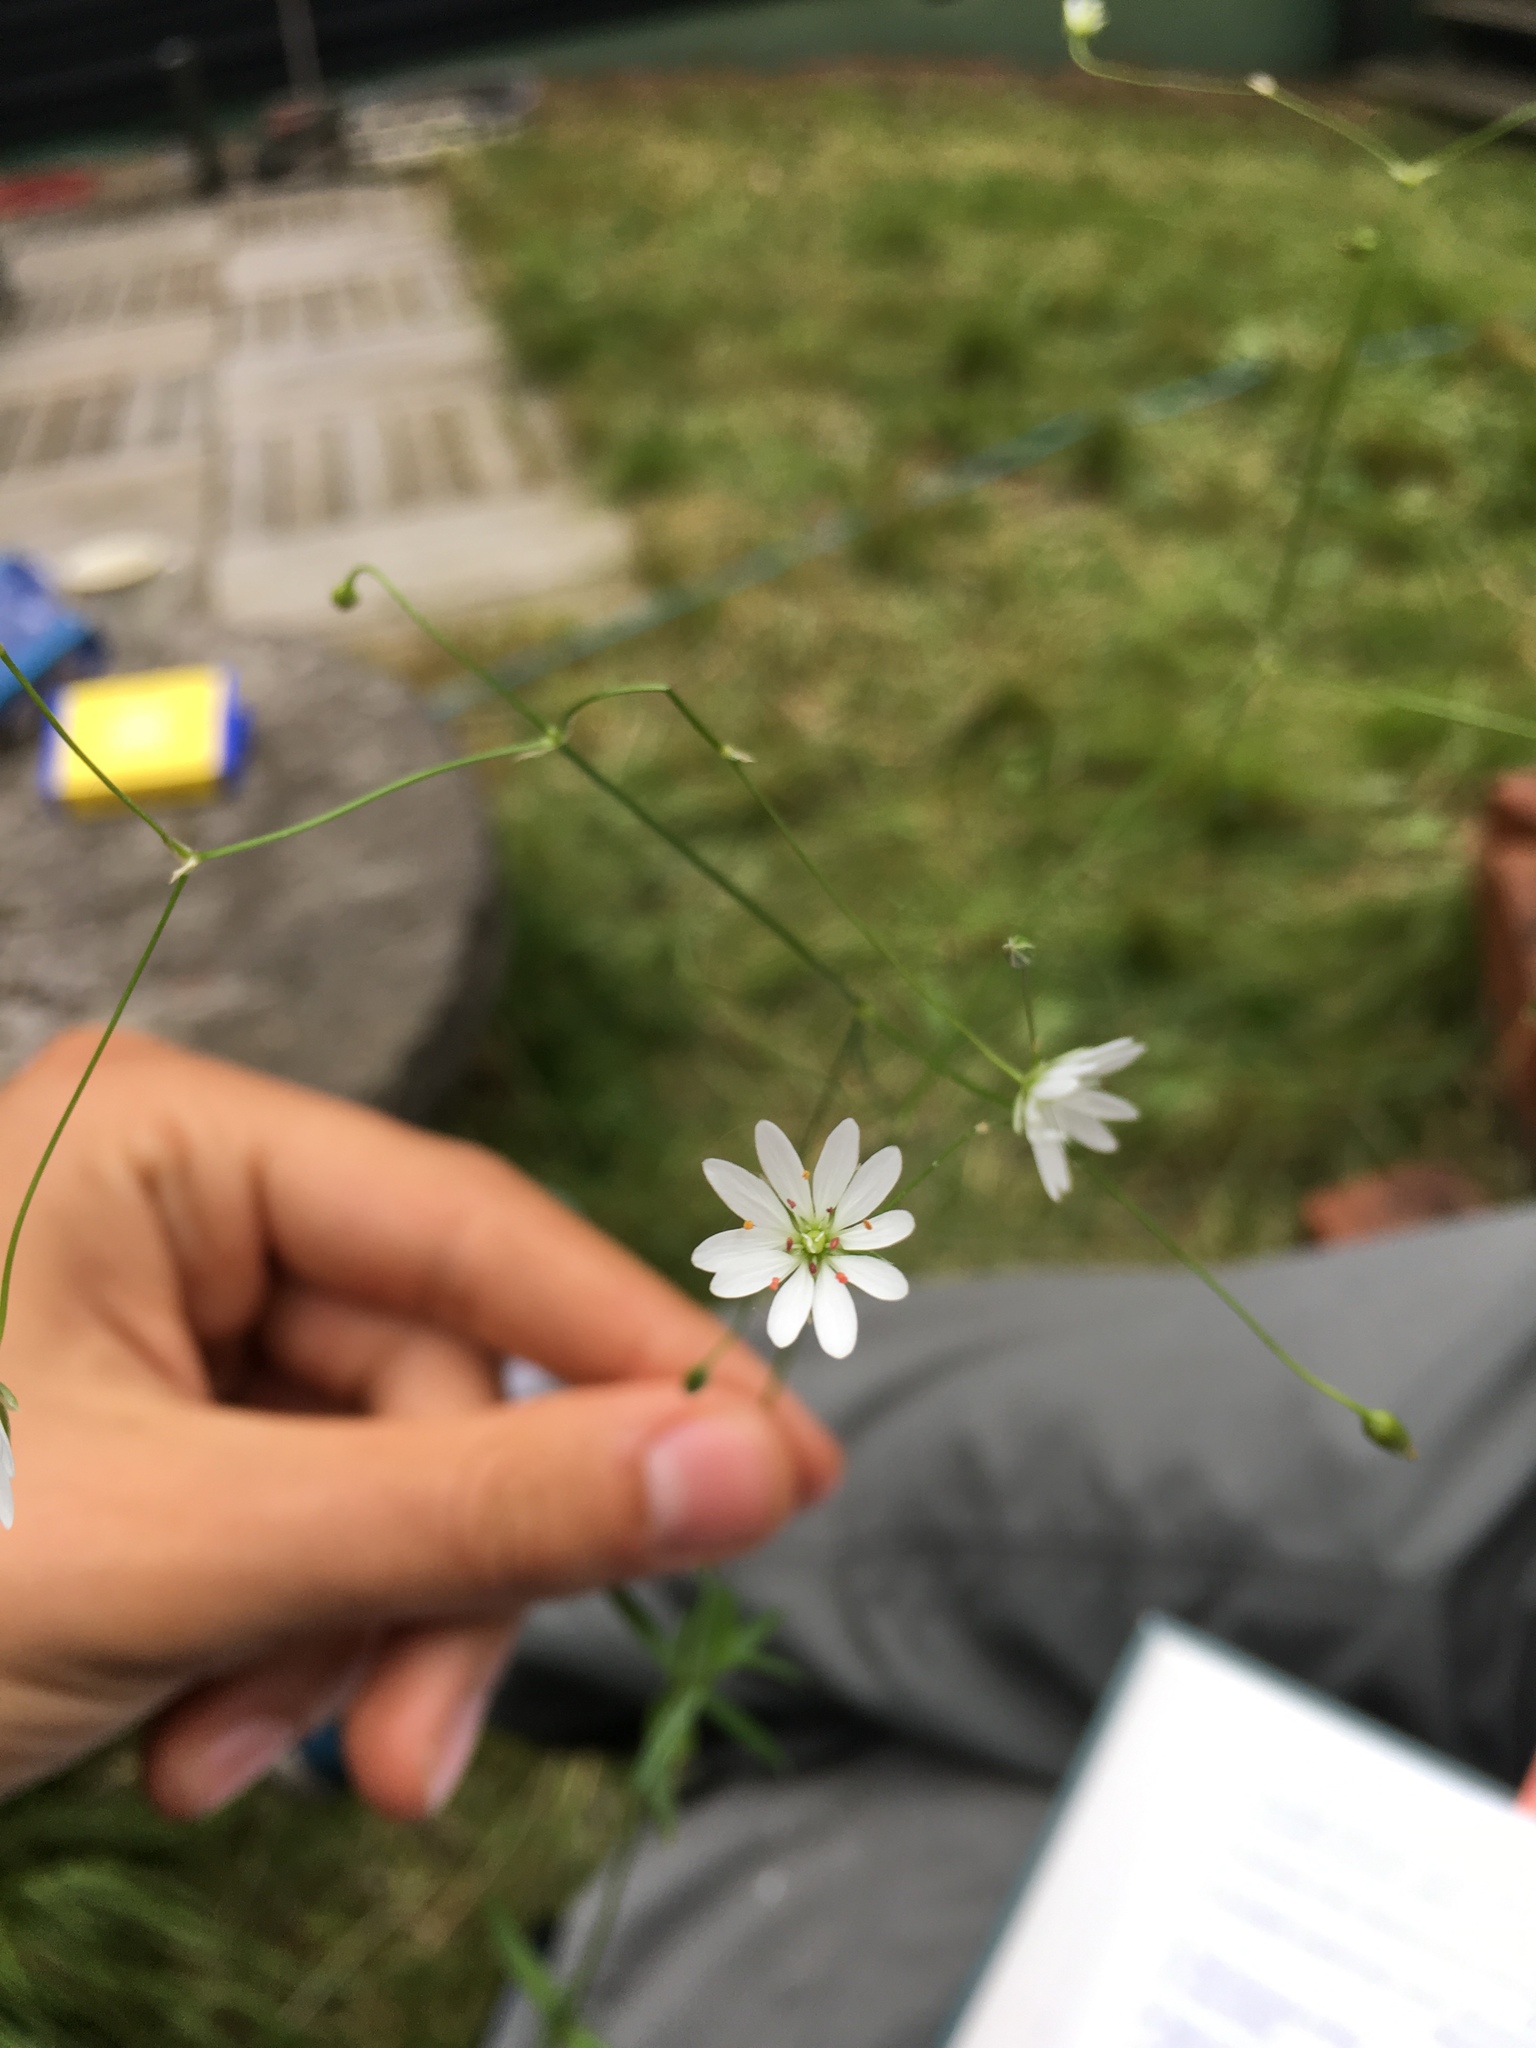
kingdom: Plantae
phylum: Tracheophyta
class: Magnoliopsida
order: Caryophyllales
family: Caryophyllaceae
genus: Stellaria
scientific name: Stellaria palustris
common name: Marsh stitchwort
